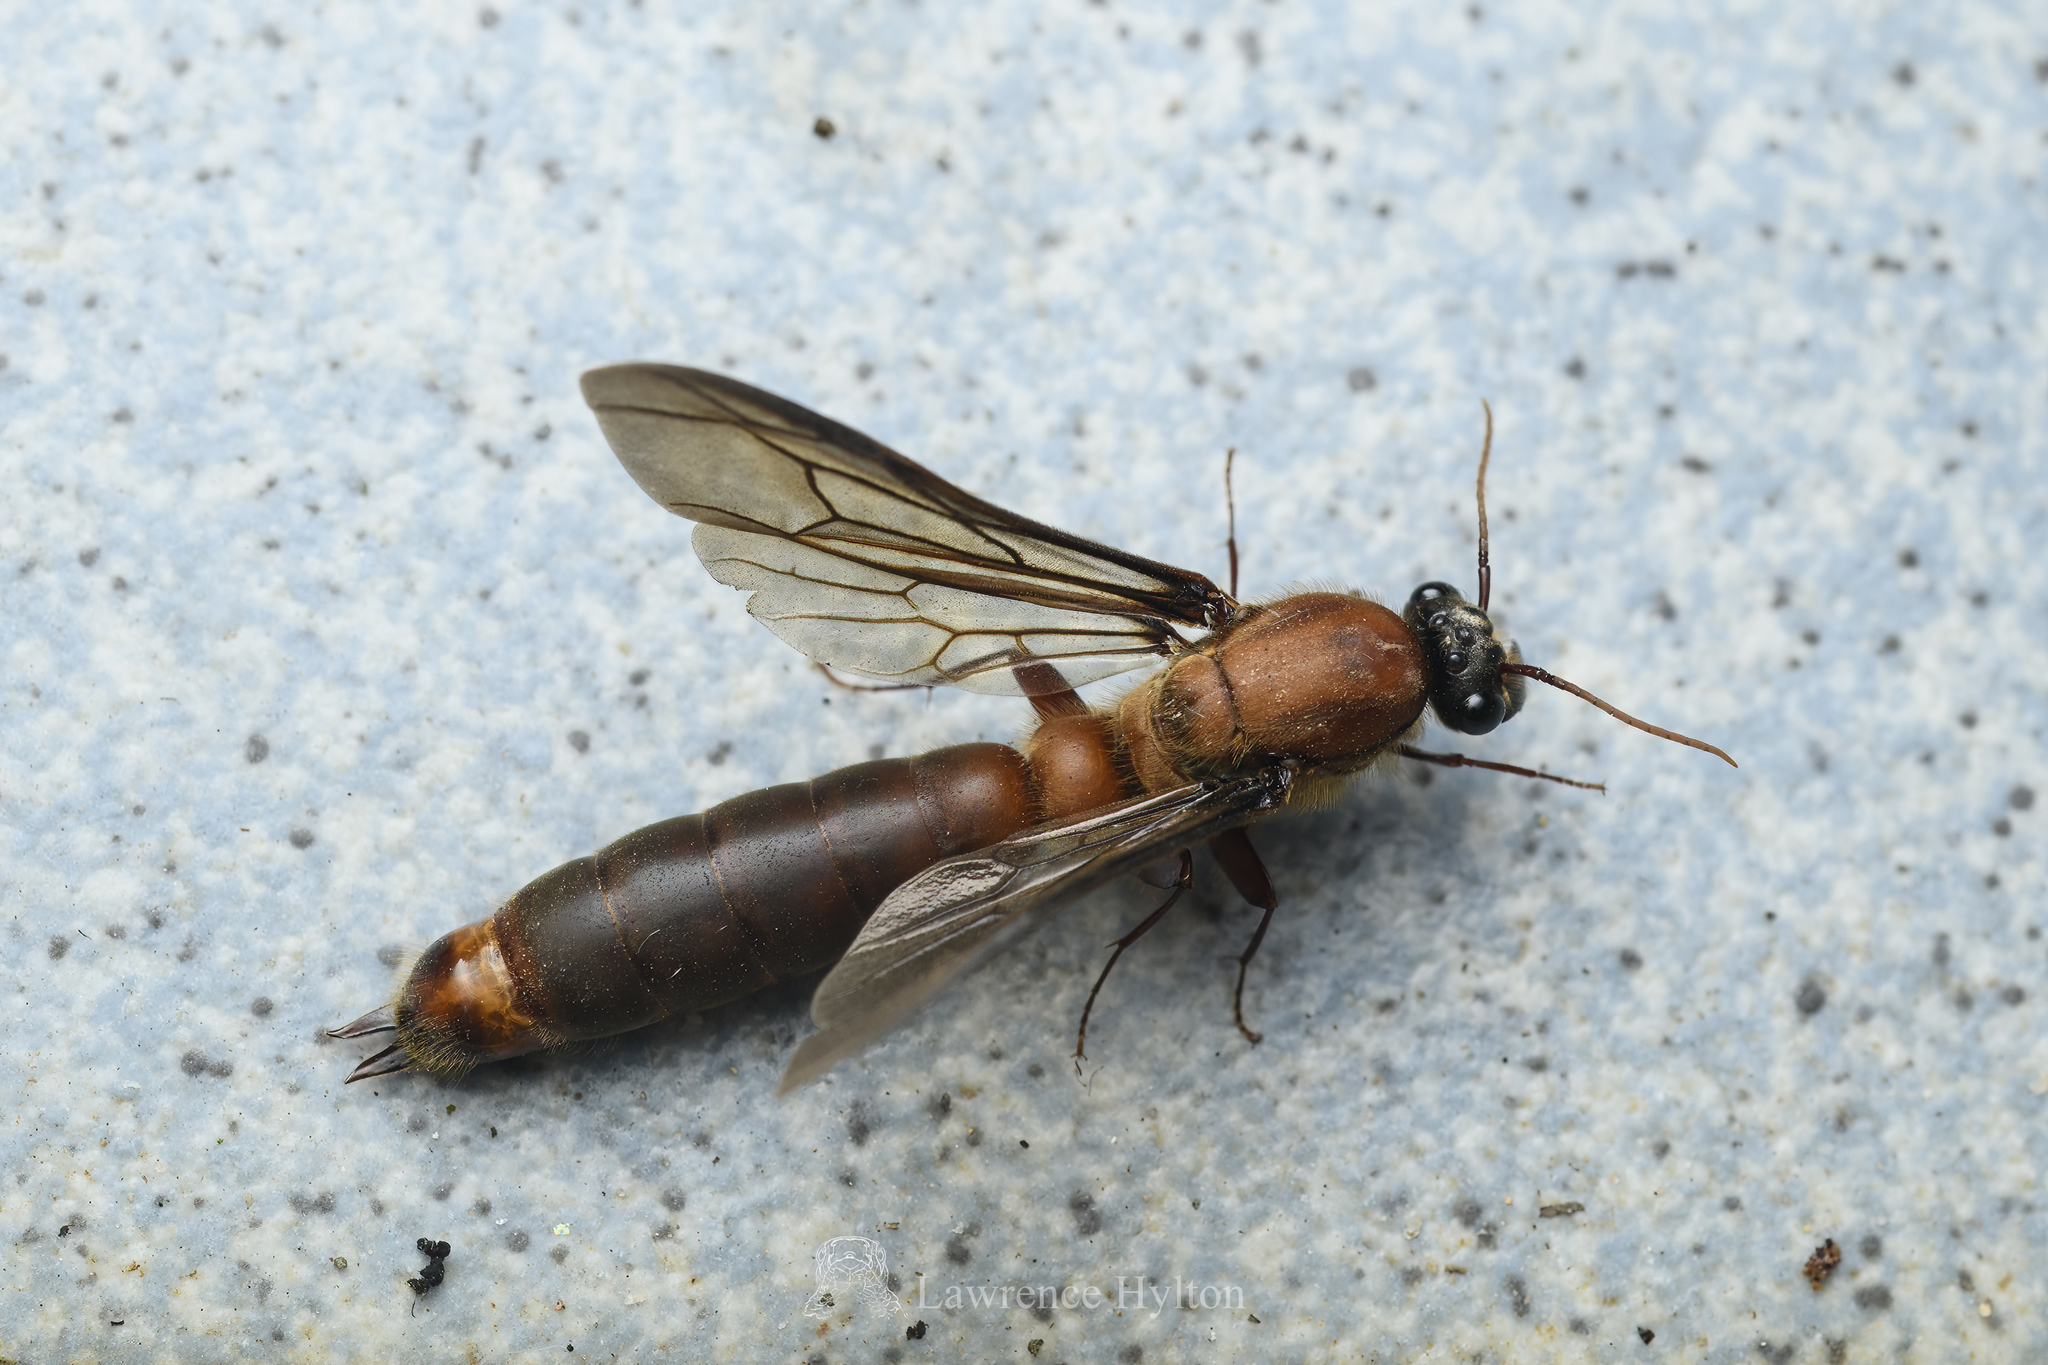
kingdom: Animalia
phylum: Arthropoda
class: Insecta
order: Hymenoptera
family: Formicidae
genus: Dorylus
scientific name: Dorylus orientalis
